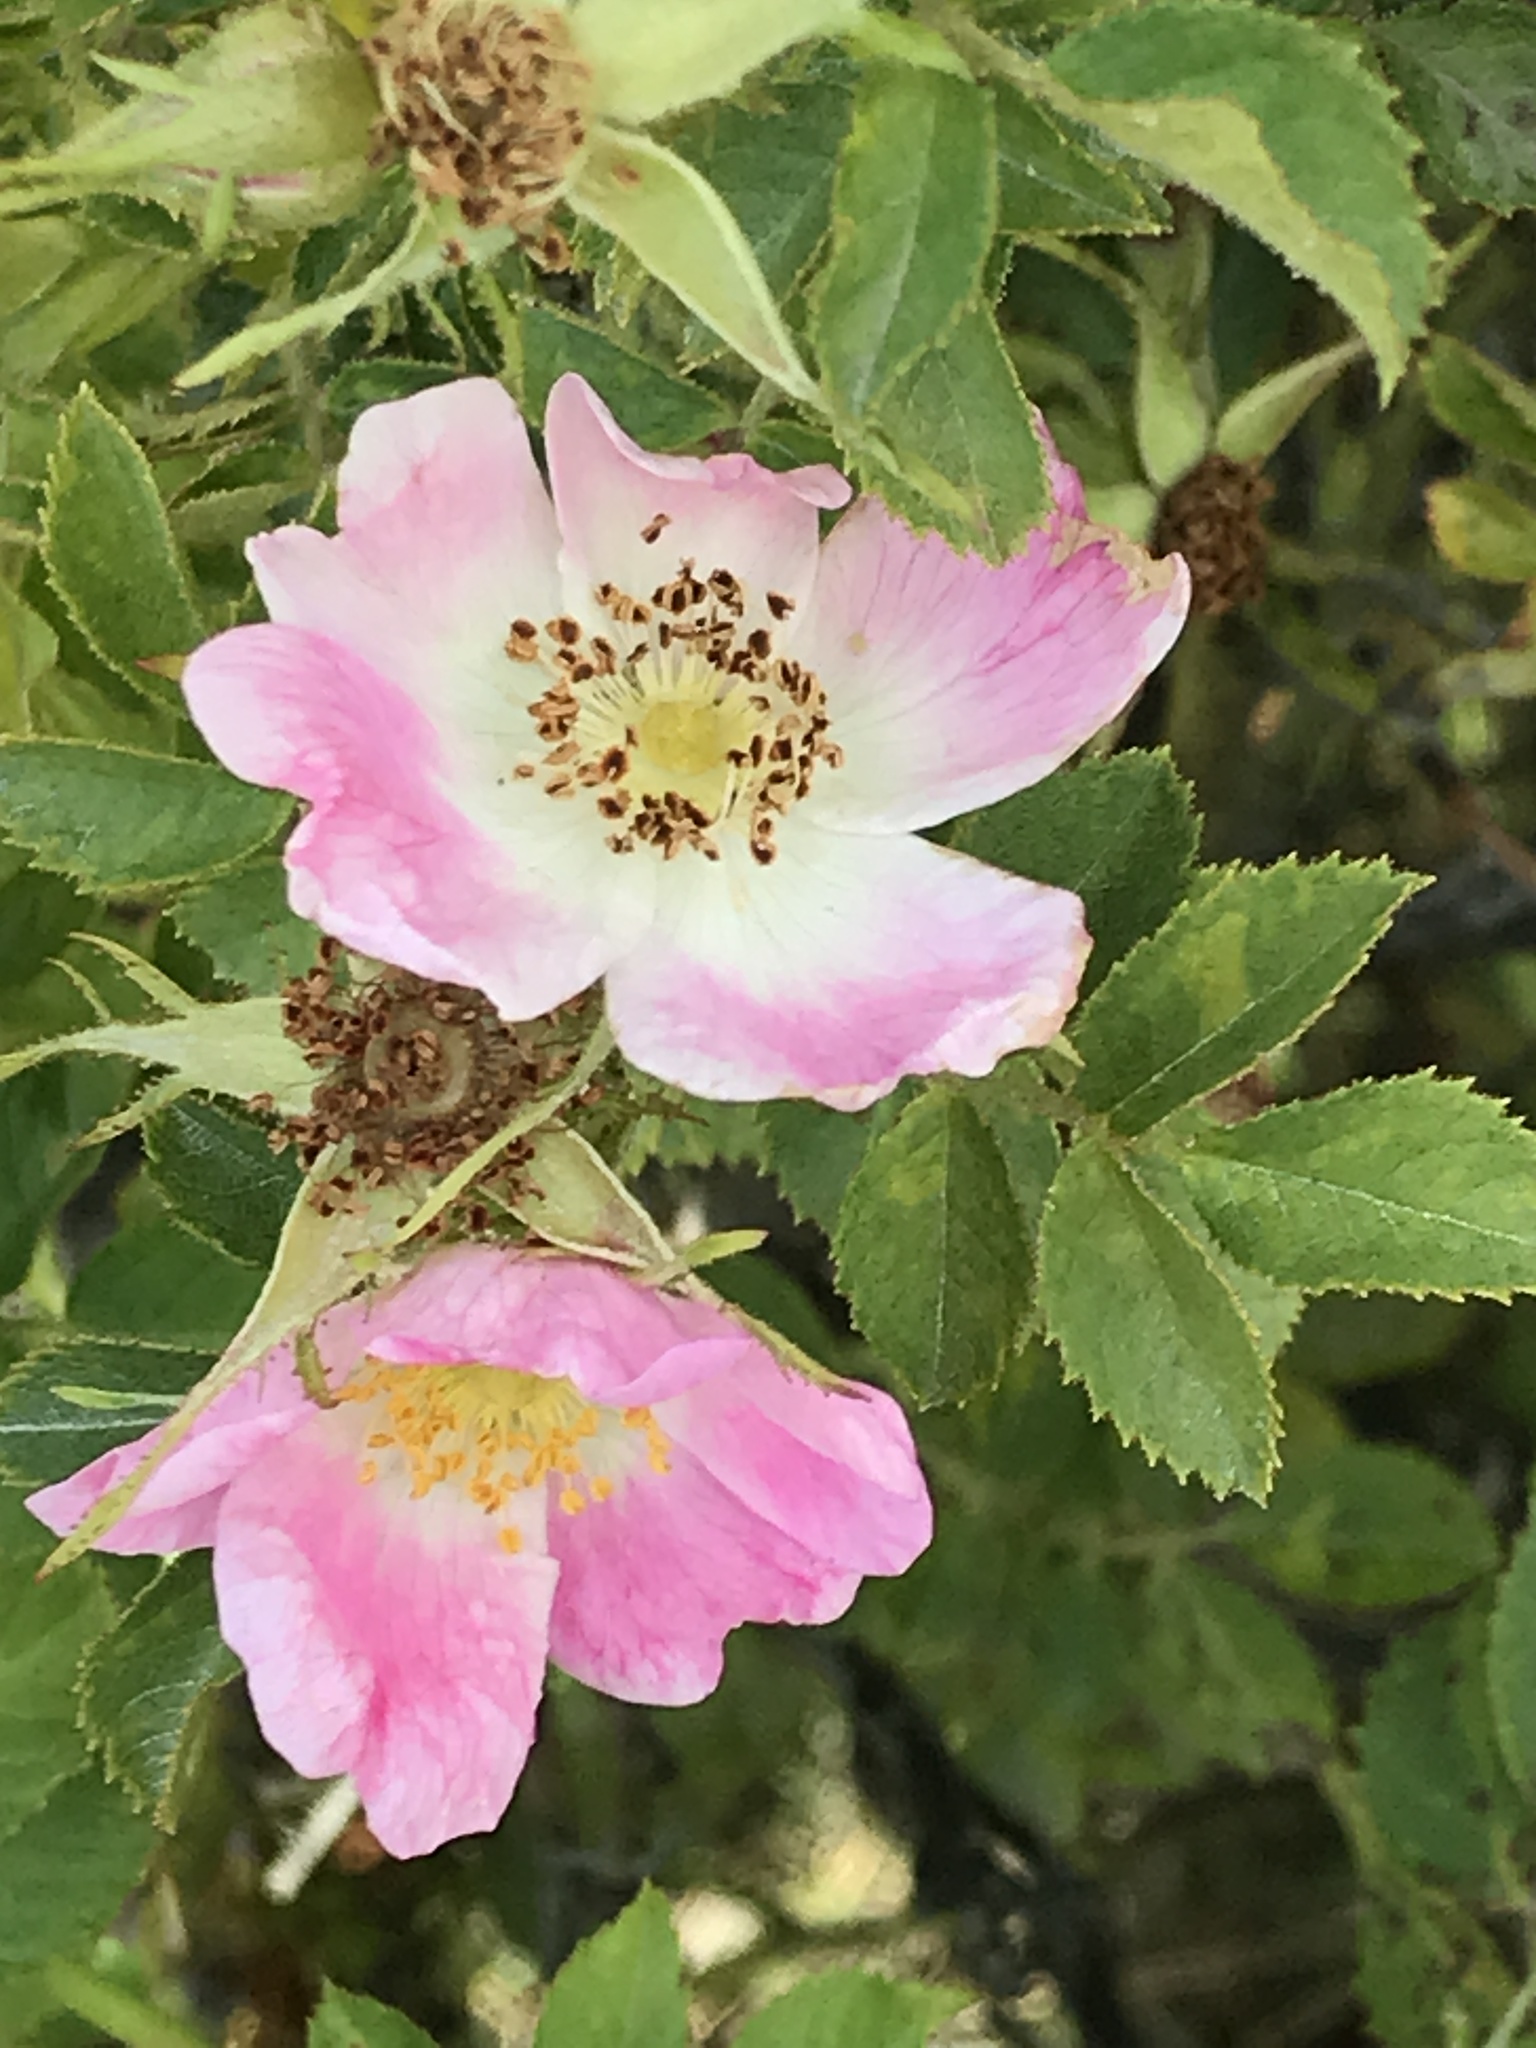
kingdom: Plantae
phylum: Tracheophyta
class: Magnoliopsida
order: Rosales
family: Rosaceae
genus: Rosa
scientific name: Rosa rubiginosa
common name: Sweet-briar
